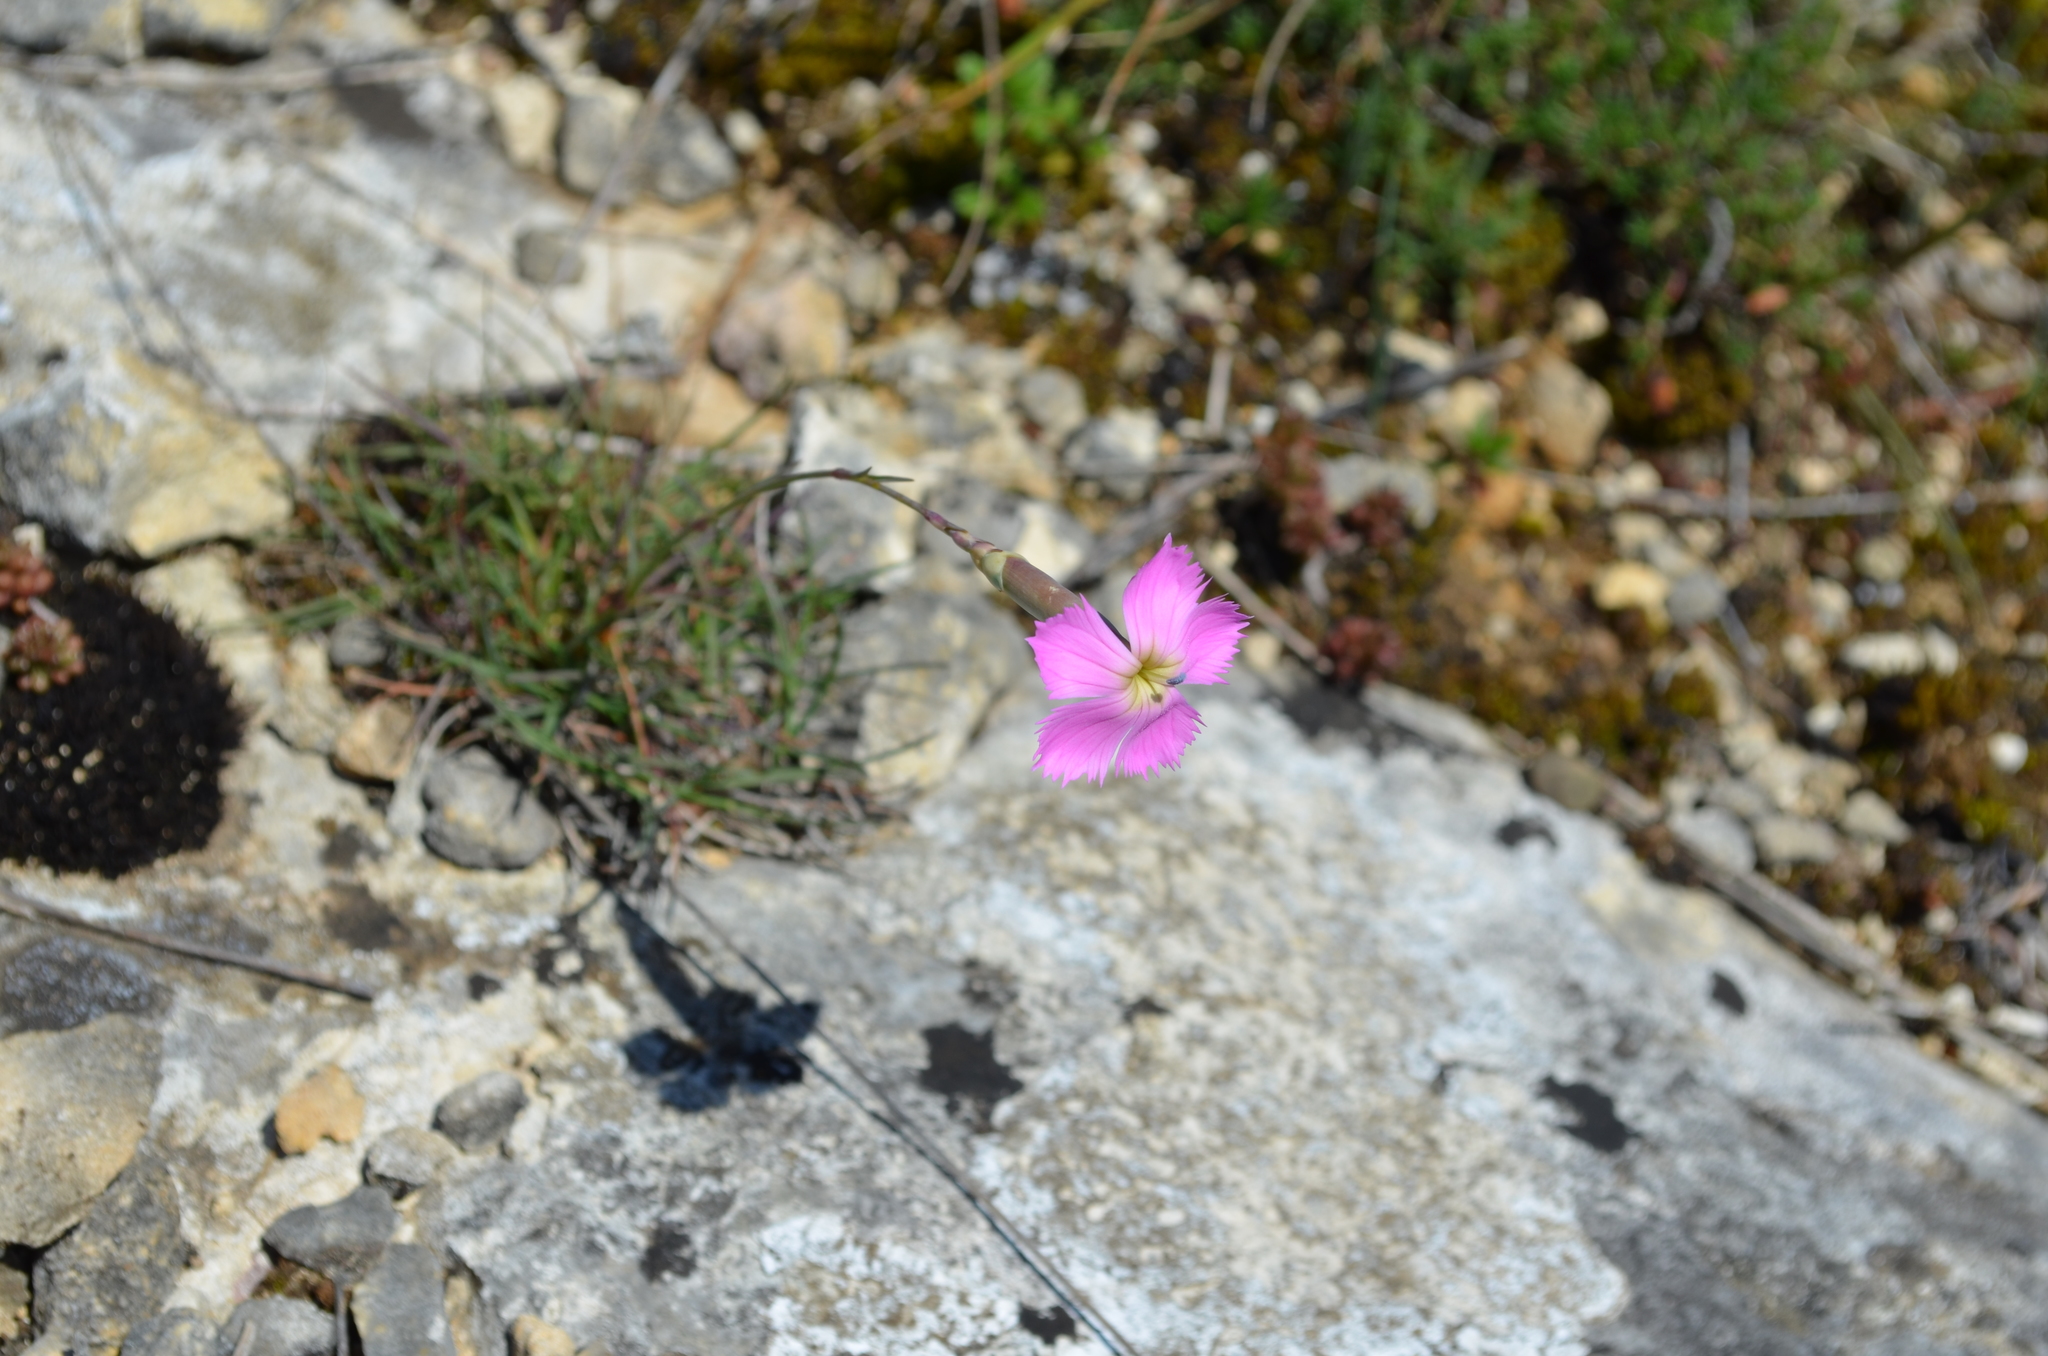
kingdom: Plantae
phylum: Tracheophyta
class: Magnoliopsida
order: Caryophyllales
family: Caryophyllaceae
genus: Dianthus
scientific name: Dianthus sylvestris
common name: Wood pink
